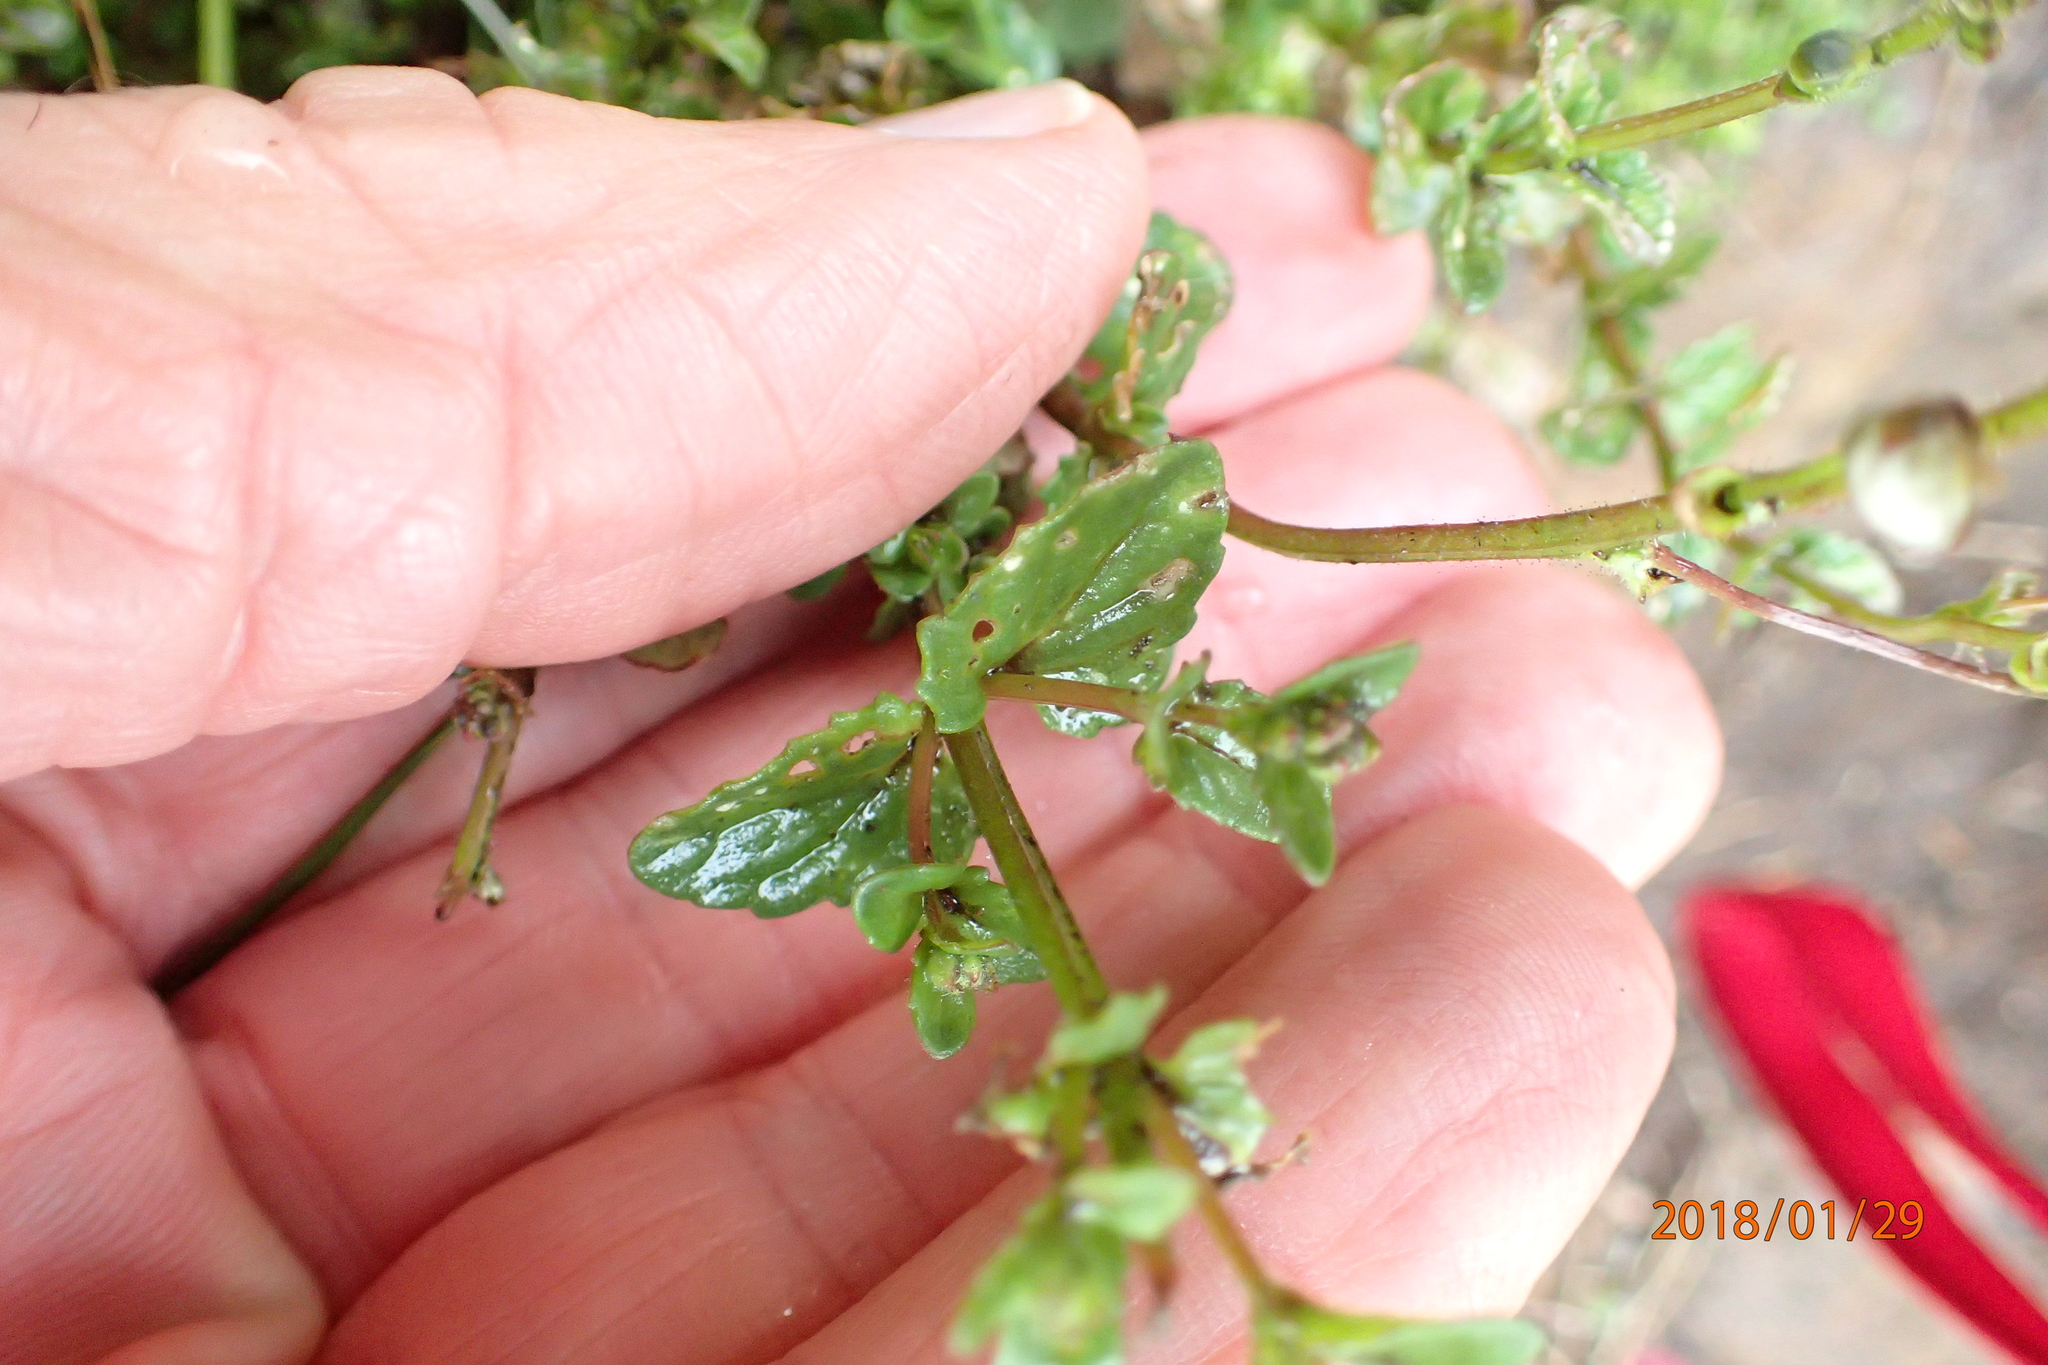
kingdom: Plantae
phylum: Tracheophyta
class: Magnoliopsida
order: Lamiales
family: Scrophulariaceae
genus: Diascia
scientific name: Diascia cordata
